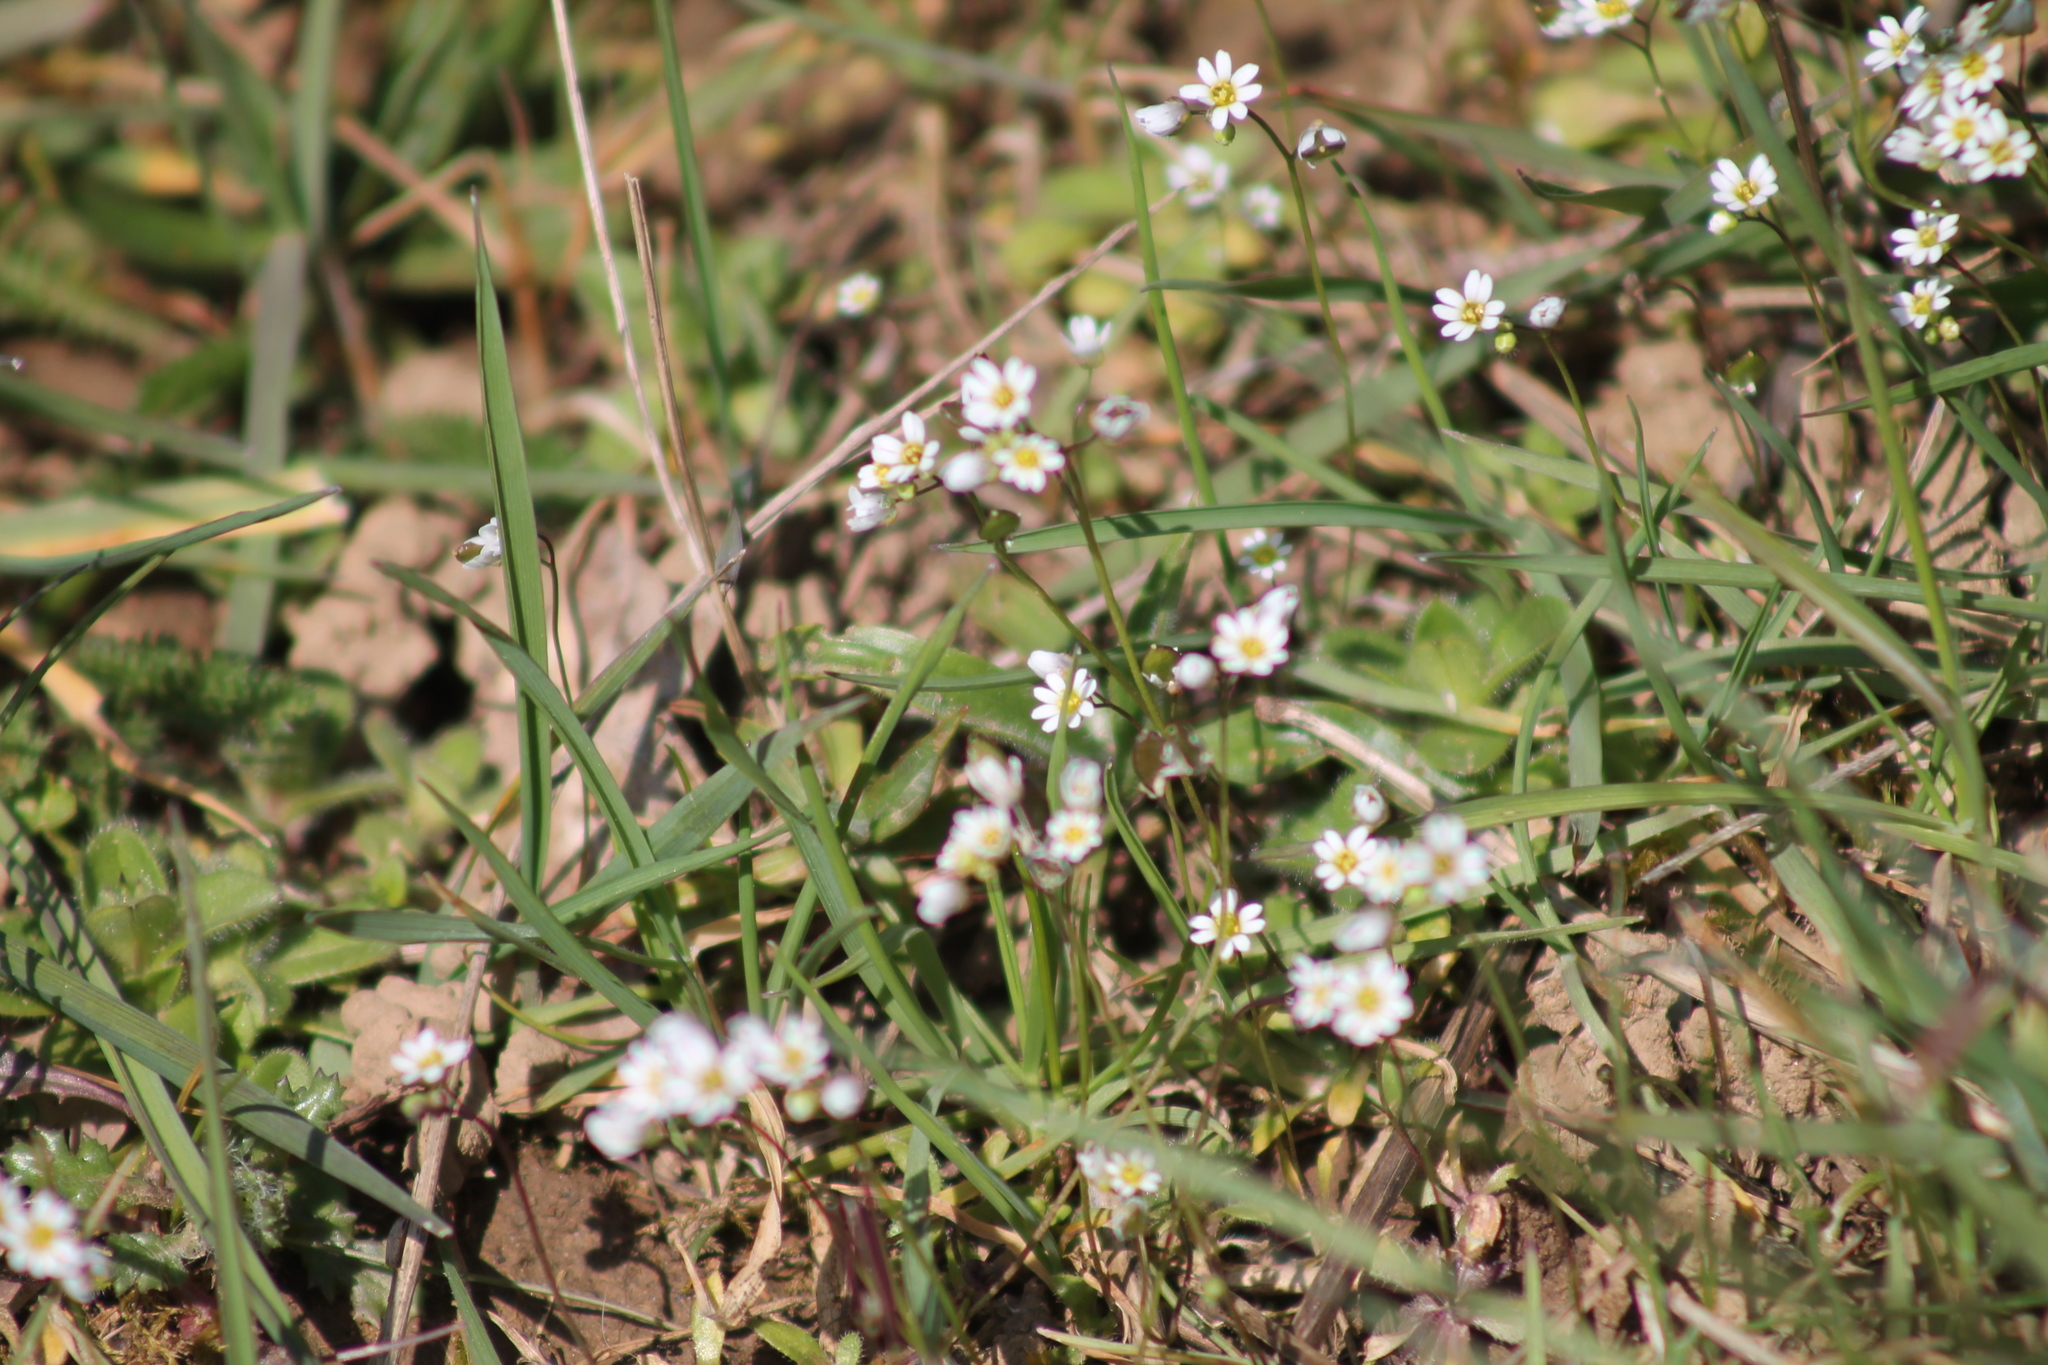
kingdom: Plantae
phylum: Tracheophyta
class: Magnoliopsida
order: Brassicales
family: Brassicaceae
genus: Draba
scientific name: Draba verna
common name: Spring draba
